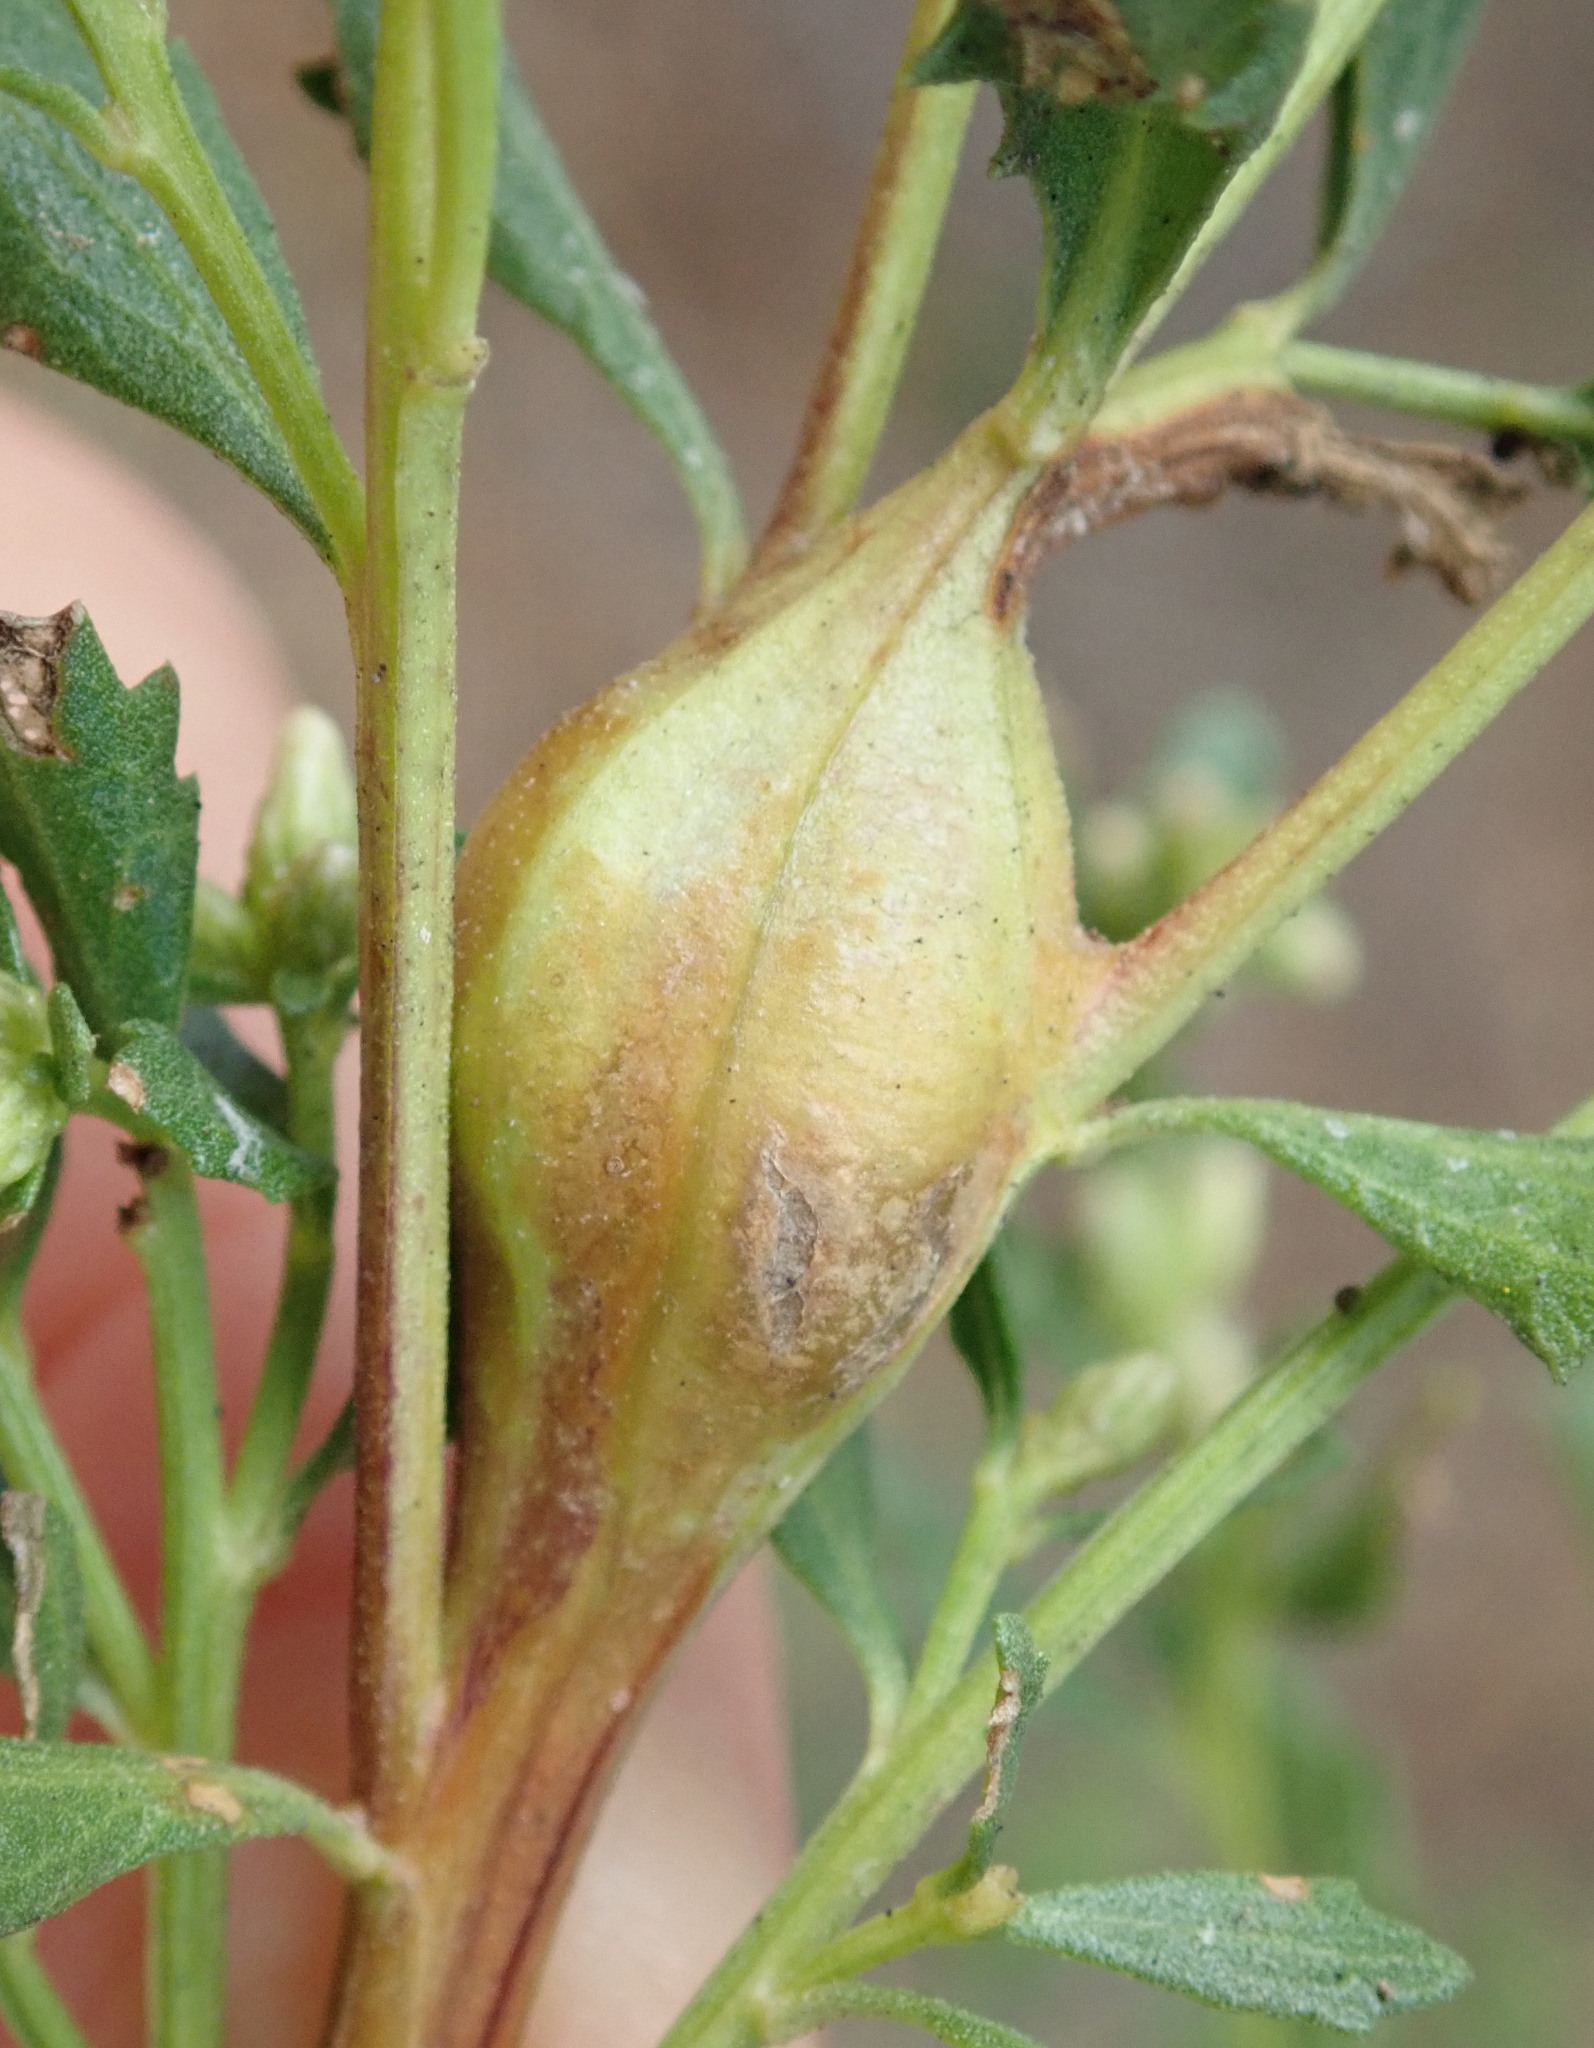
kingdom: Animalia
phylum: Arthropoda
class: Insecta
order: Lepidoptera
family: Gelechiidae
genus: Gnorimoschema
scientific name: Gnorimoschema baccharisella
